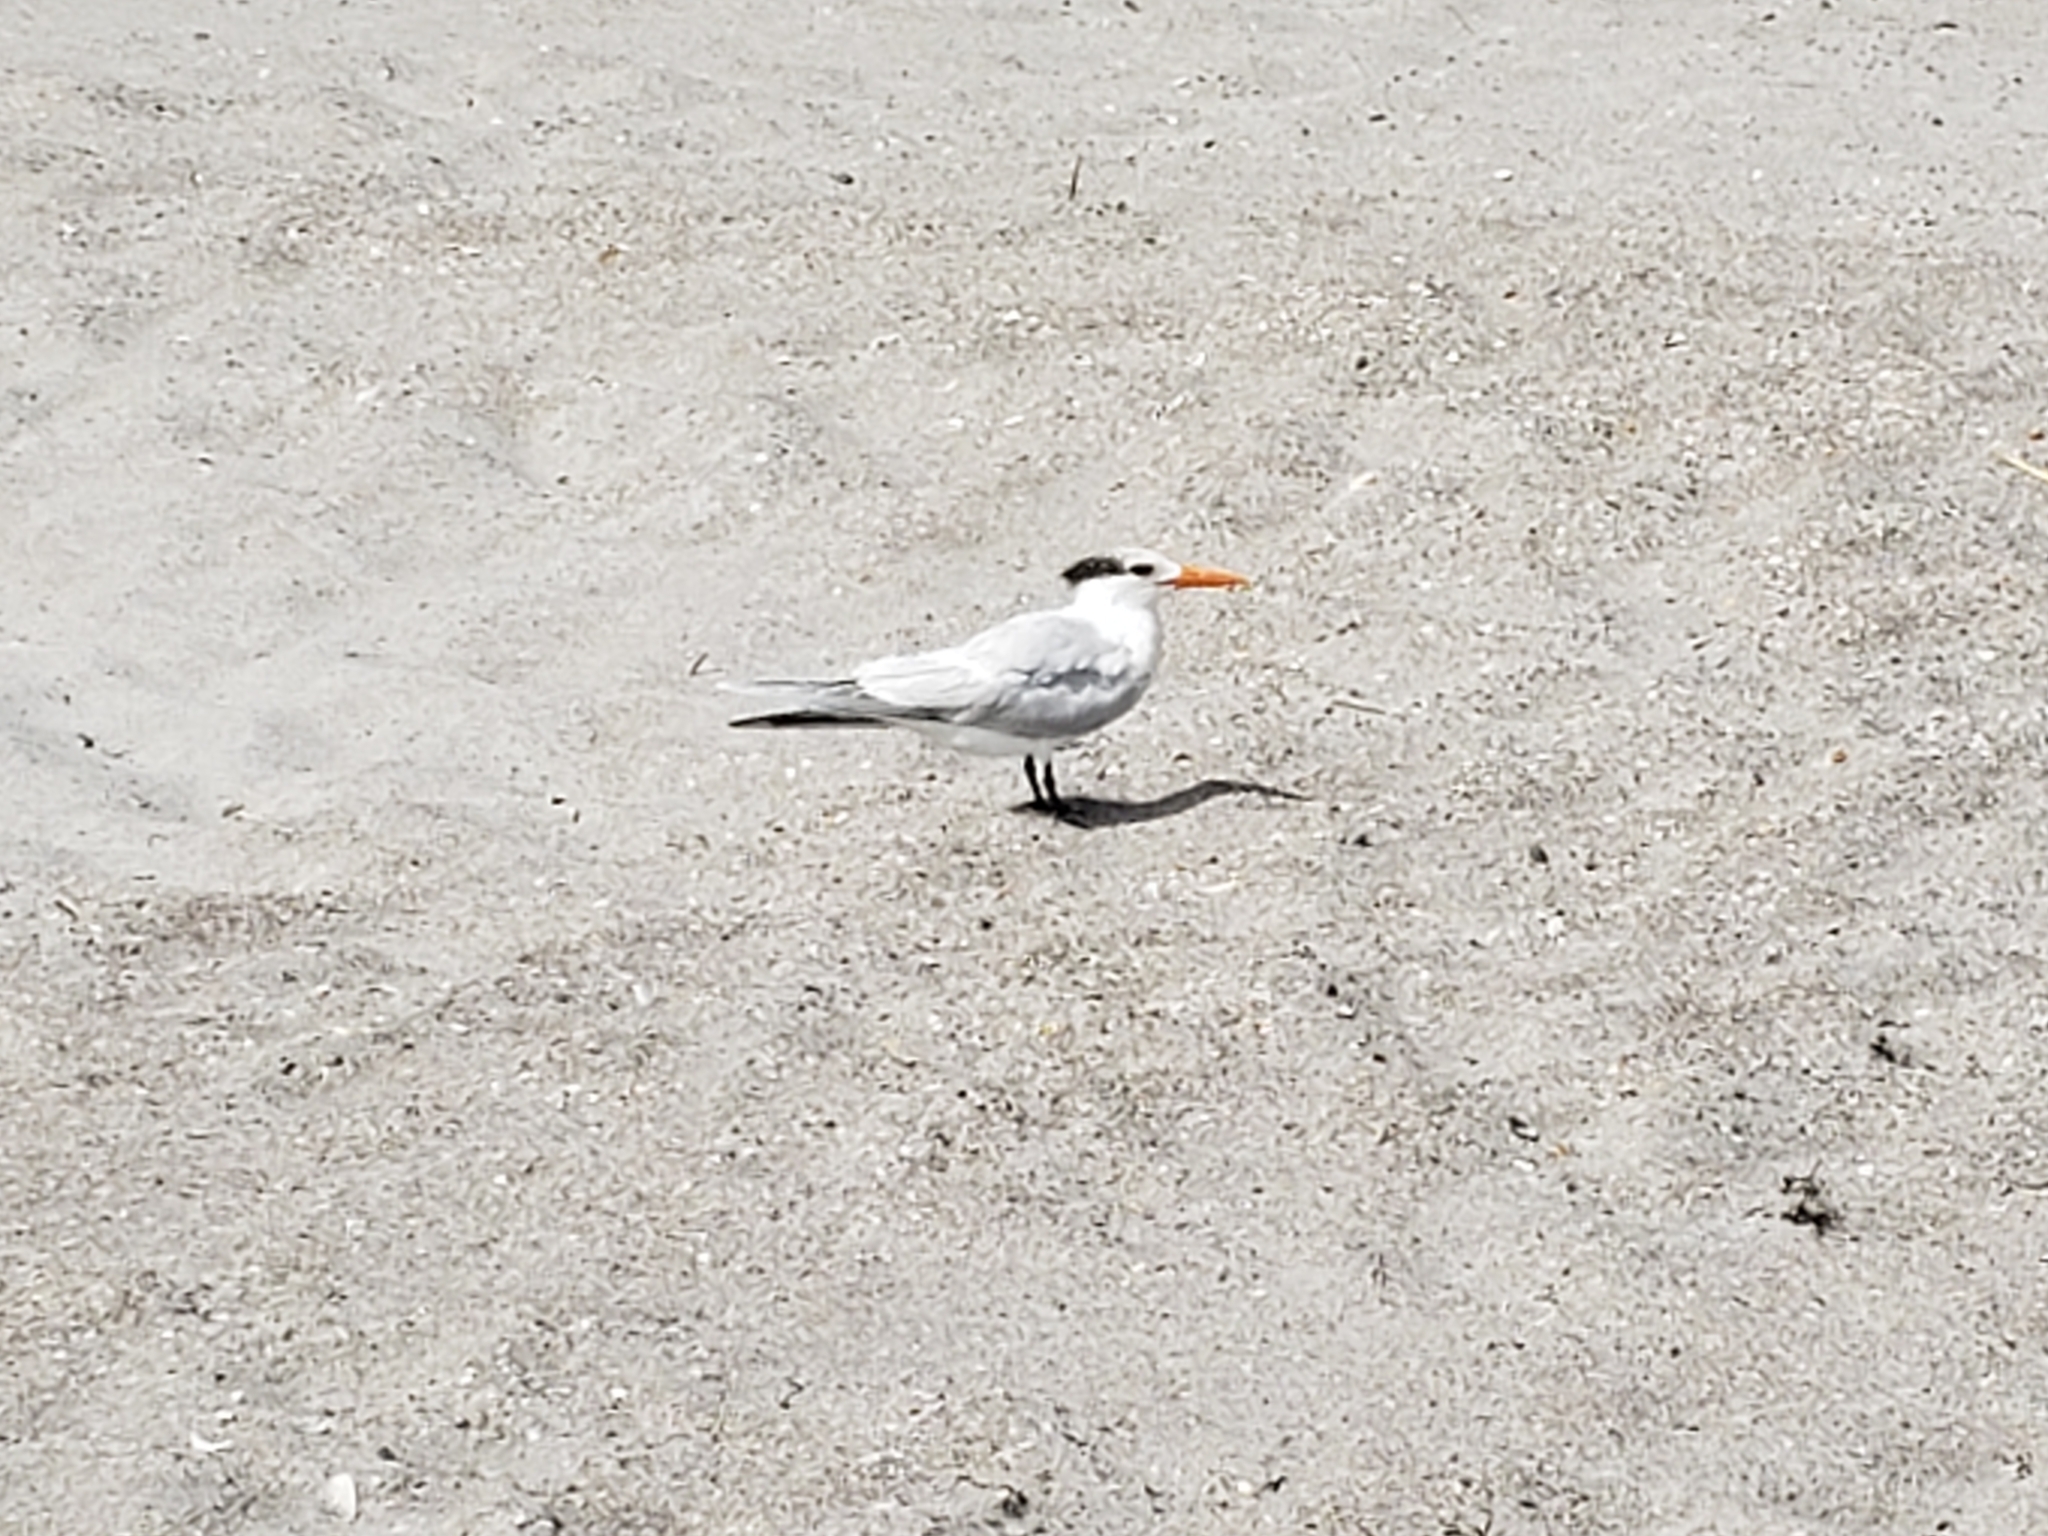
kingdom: Animalia
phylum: Chordata
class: Aves
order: Charadriiformes
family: Laridae
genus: Thalasseus
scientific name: Thalasseus maximus
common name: Royal tern
